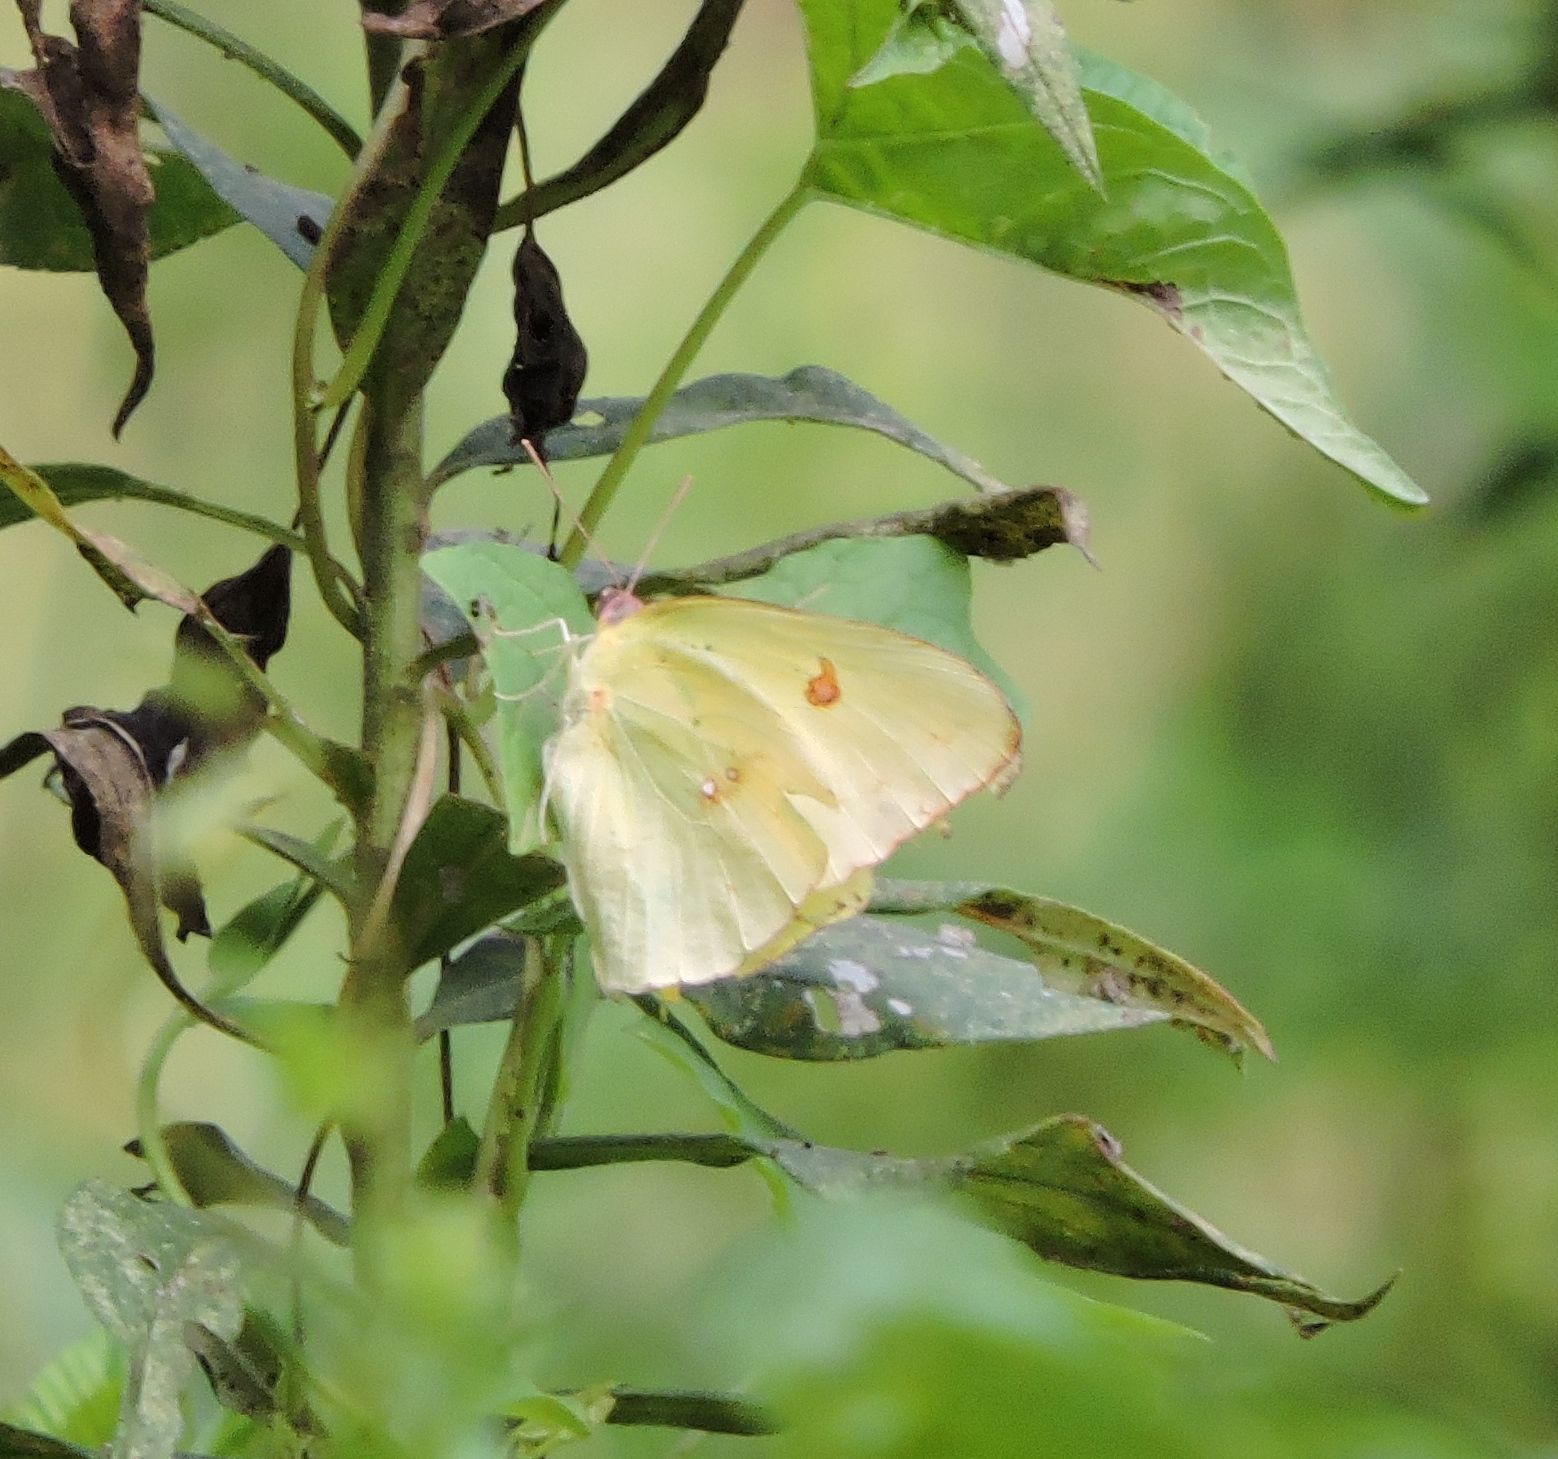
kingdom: Animalia
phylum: Arthropoda
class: Insecta
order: Lepidoptera
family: Pieridae
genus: Phoebis
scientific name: Phoebis sennae
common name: Cloudless sulphur
